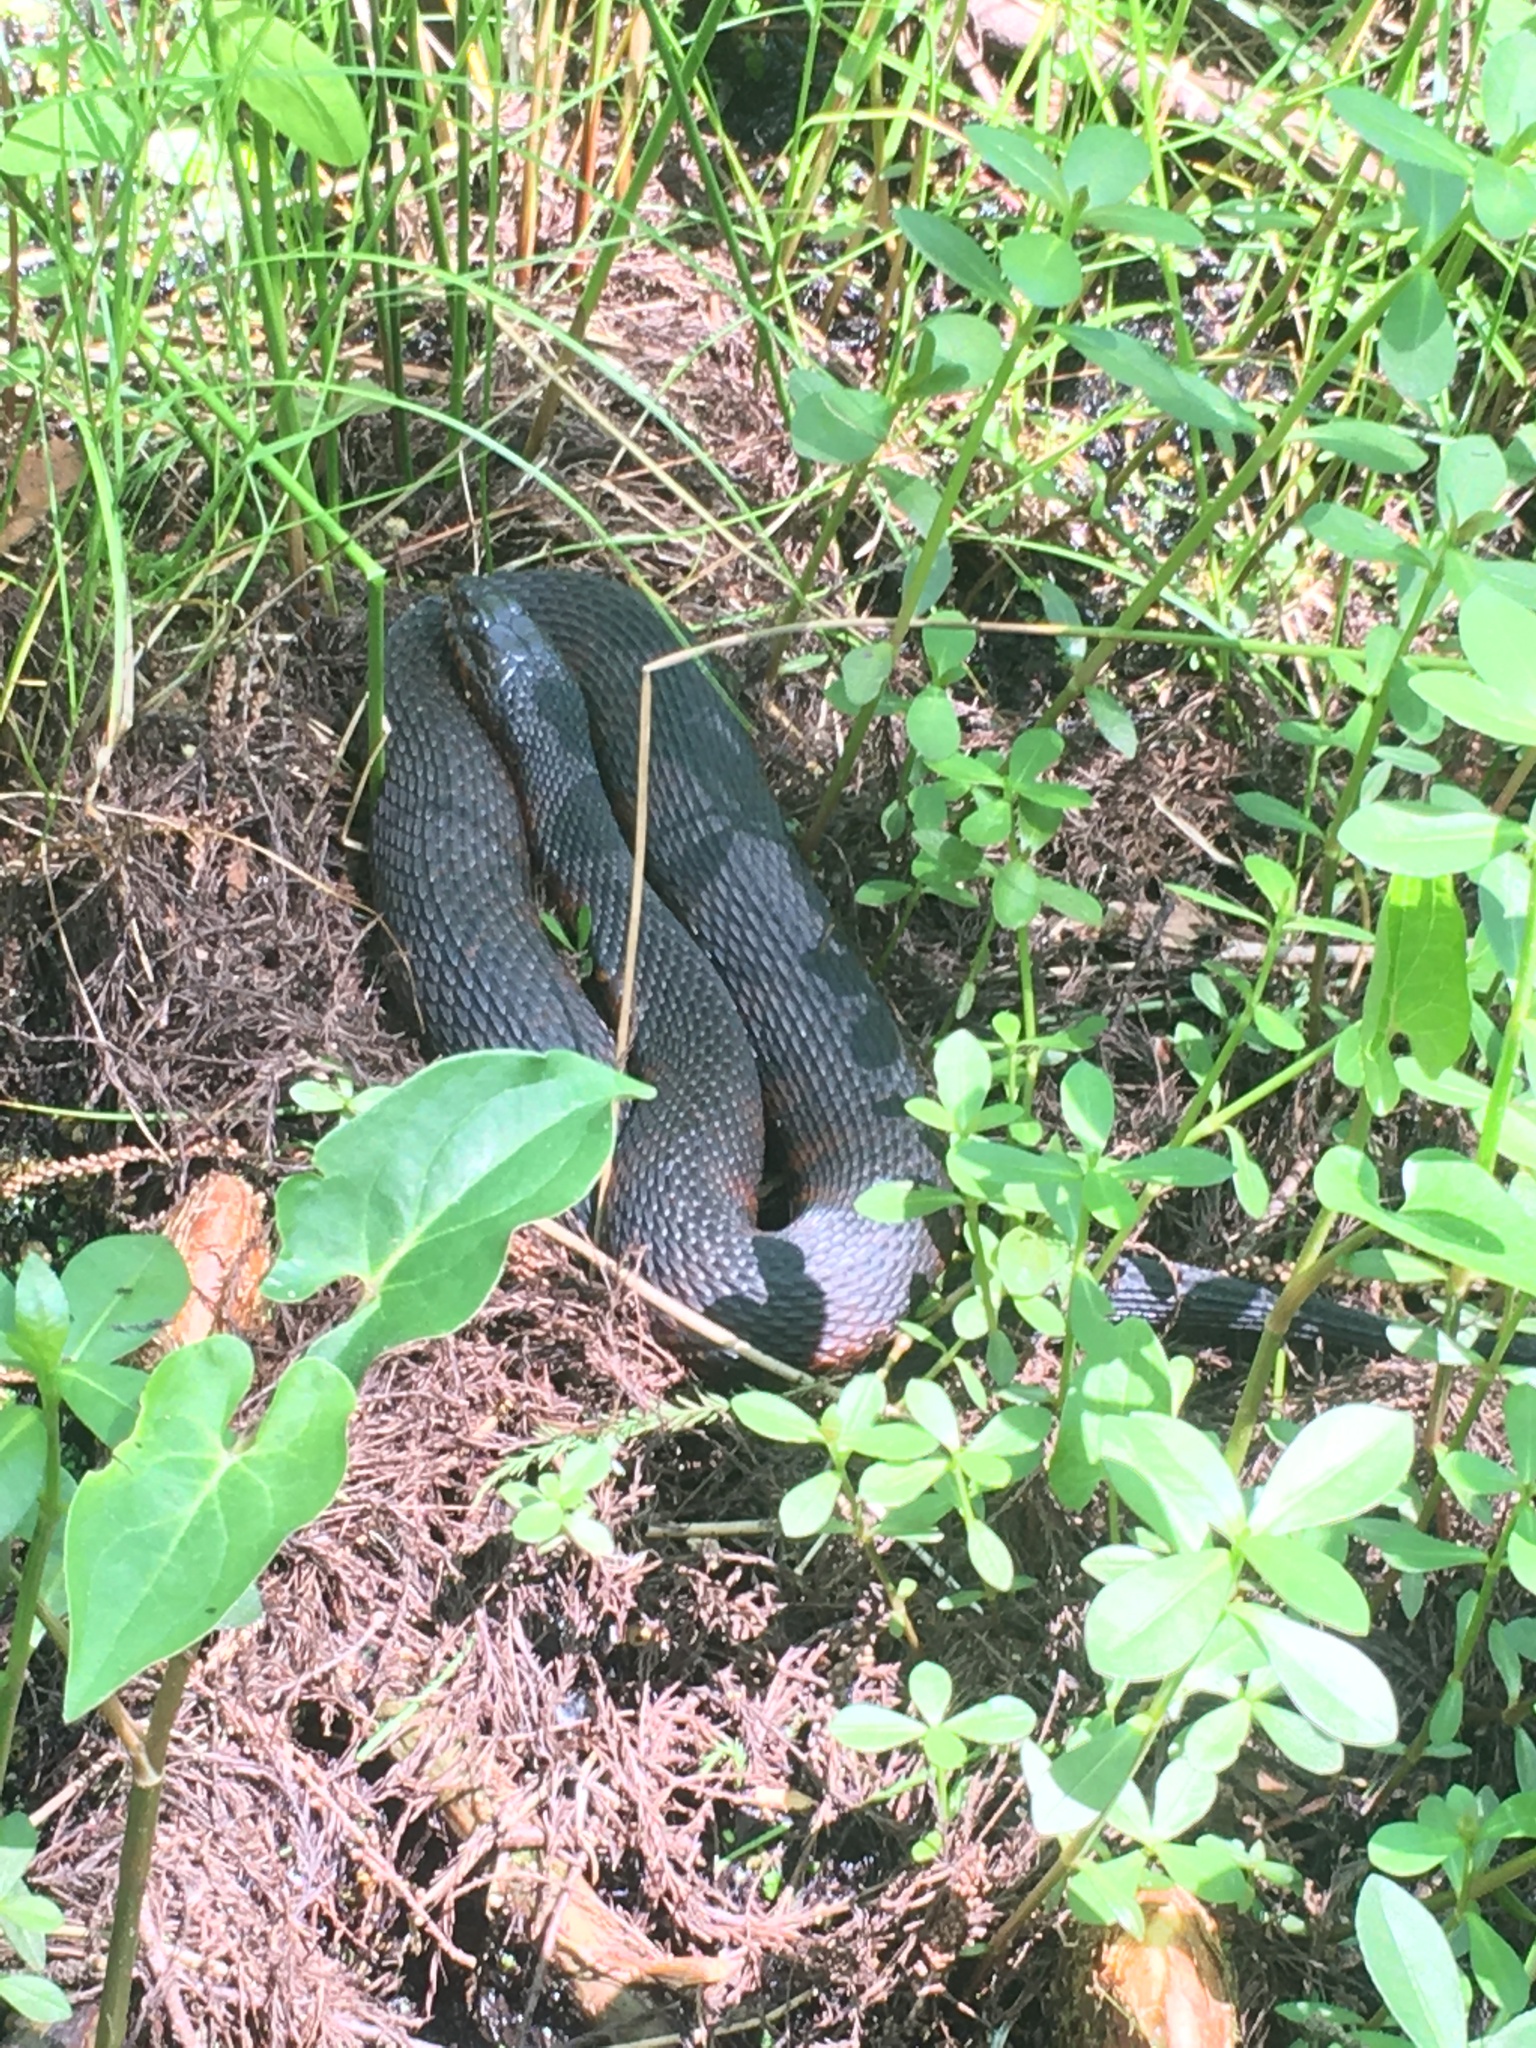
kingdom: Animalia
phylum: Chordata
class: Squamata
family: Colubridae
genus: Nerodia
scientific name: Nerodia fasciata
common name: Southern water snake
